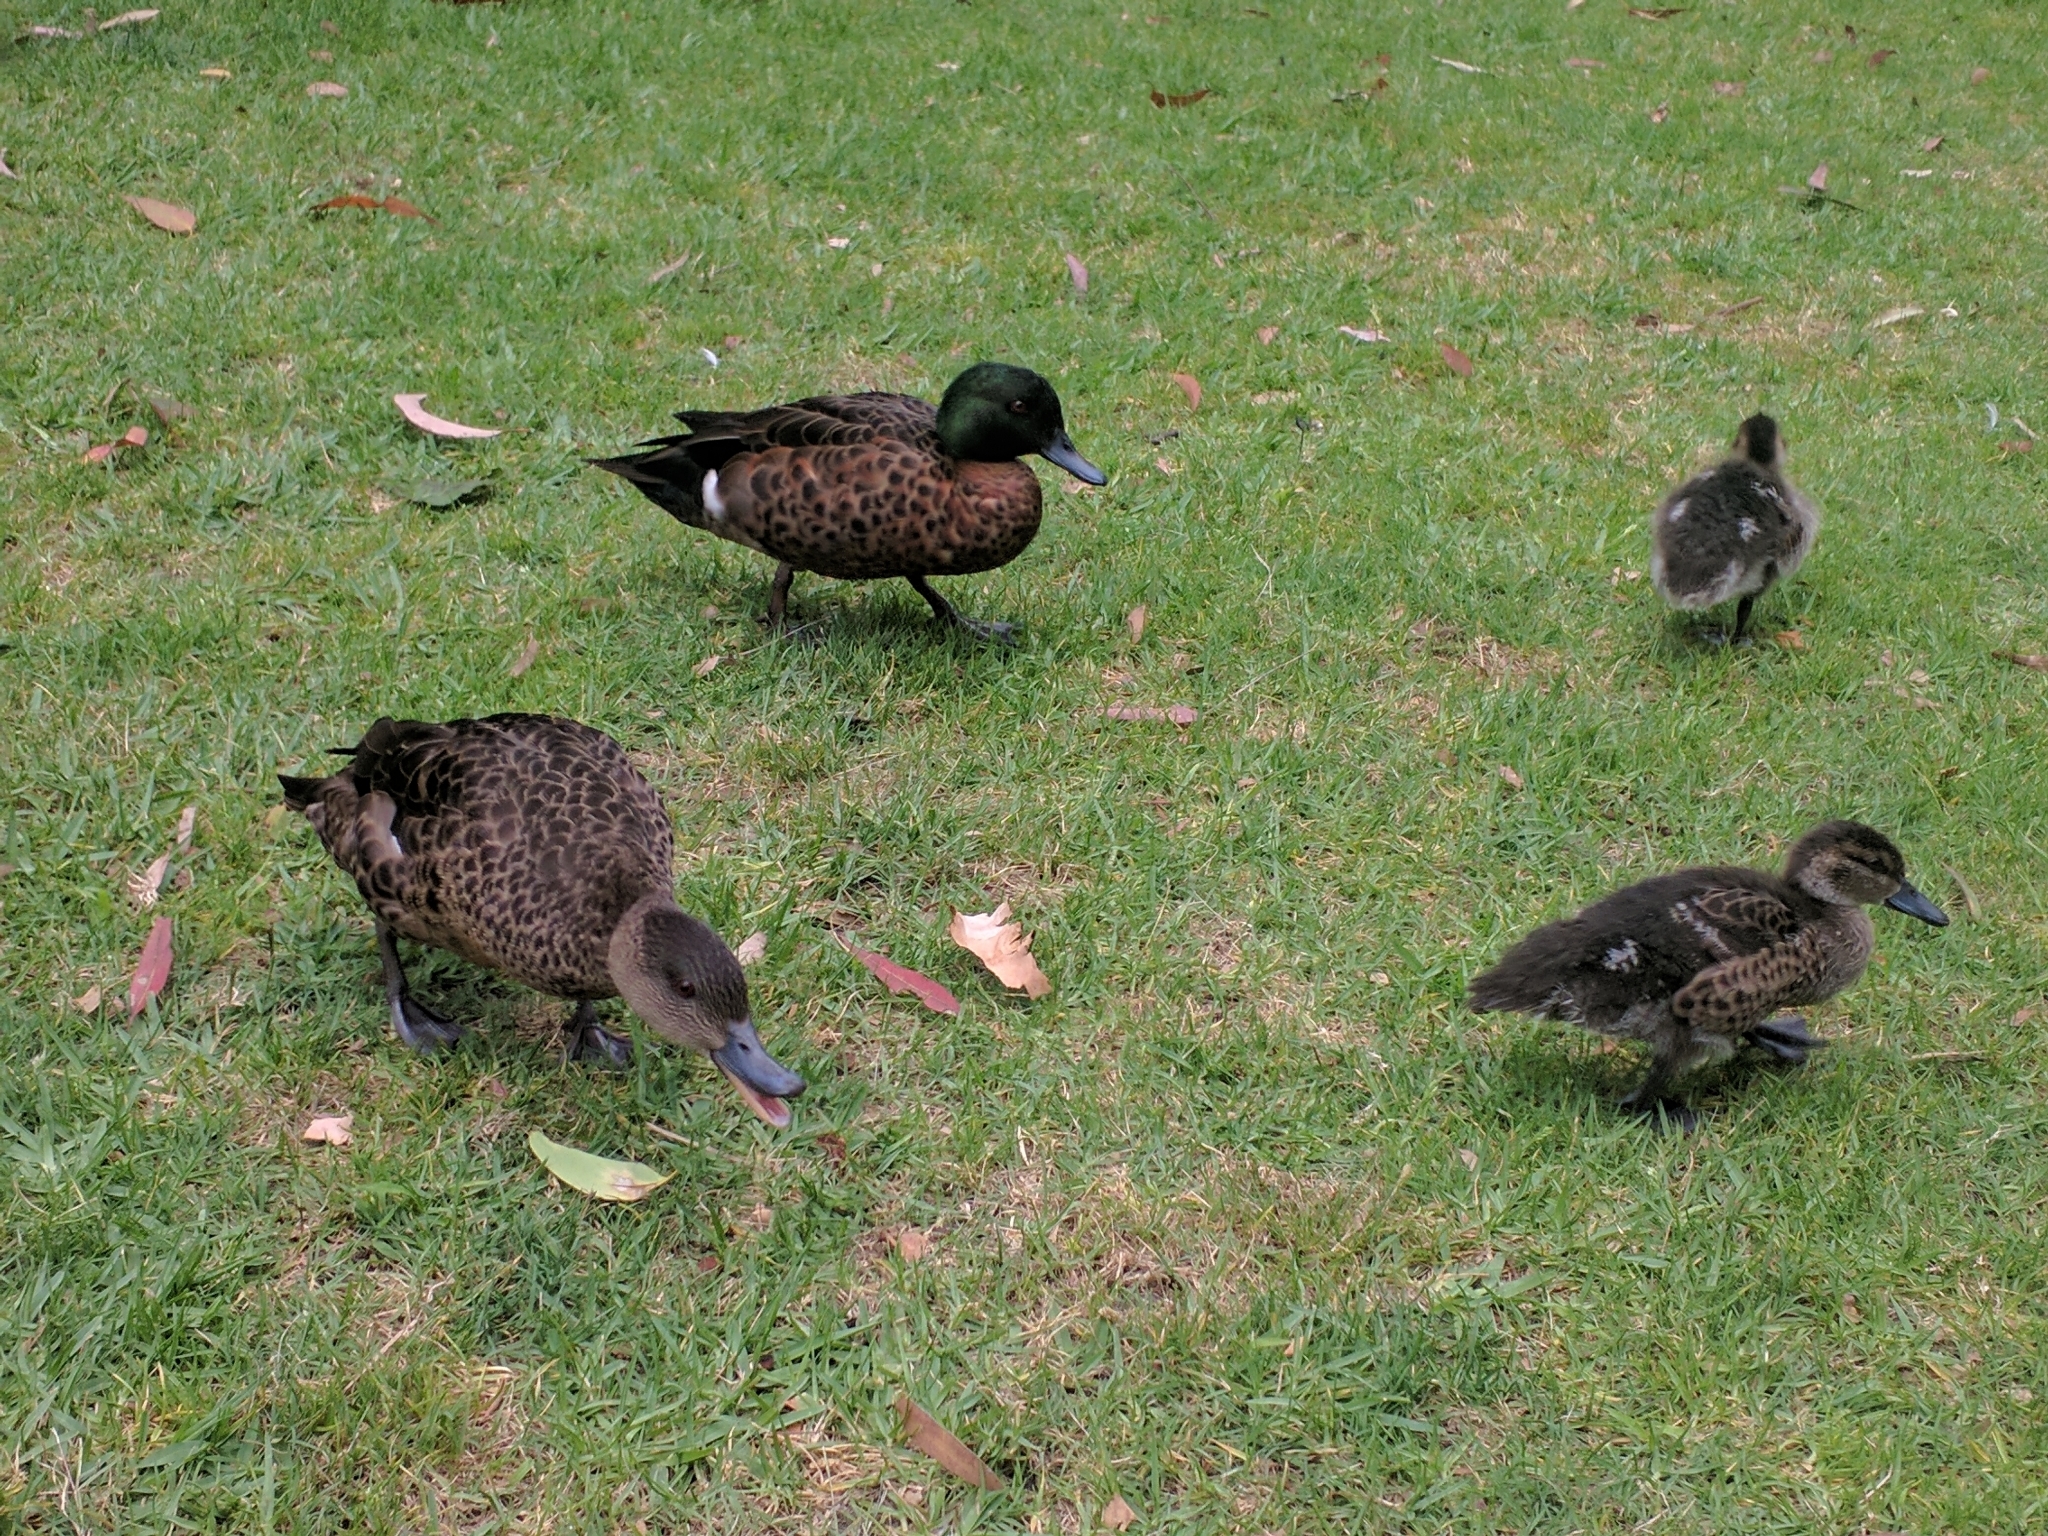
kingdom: Animalia
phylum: Chordata
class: Aves
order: Anseriformes
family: Anatidae
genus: Anas
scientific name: Anas castanea
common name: Chestnut teal
